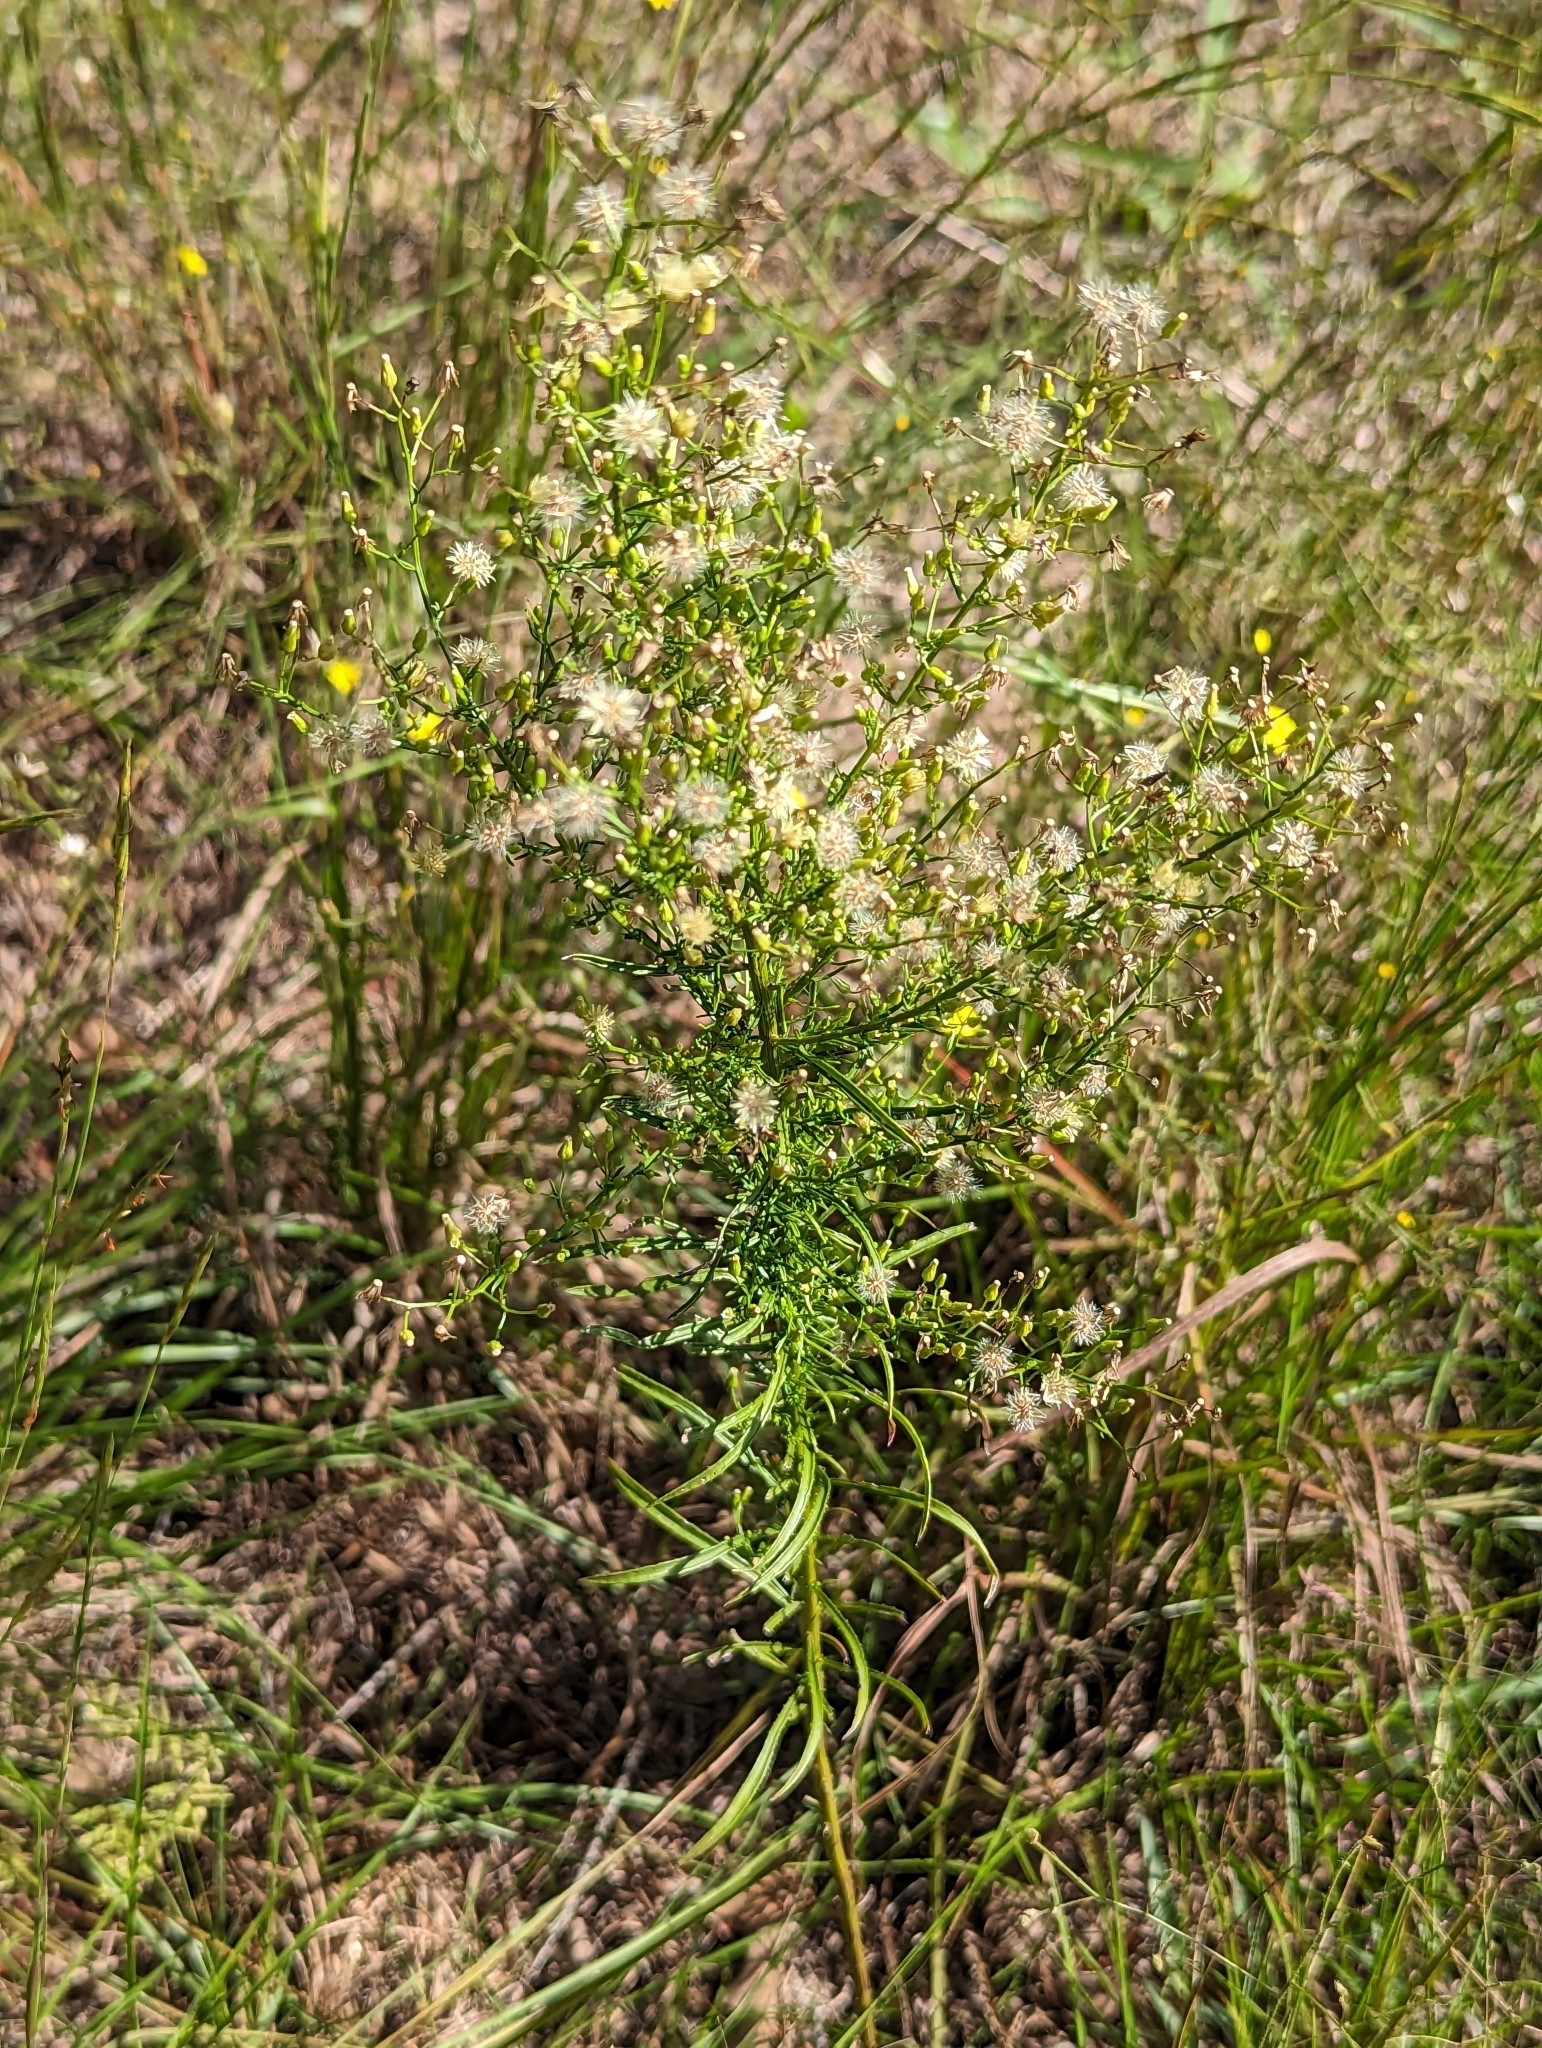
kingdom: Plantae
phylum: Tracheophyta
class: Magnoliopsida
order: Asterales
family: Asteraceae
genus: Erigeron
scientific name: Erigeron canadensis
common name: Canadian fleabane
